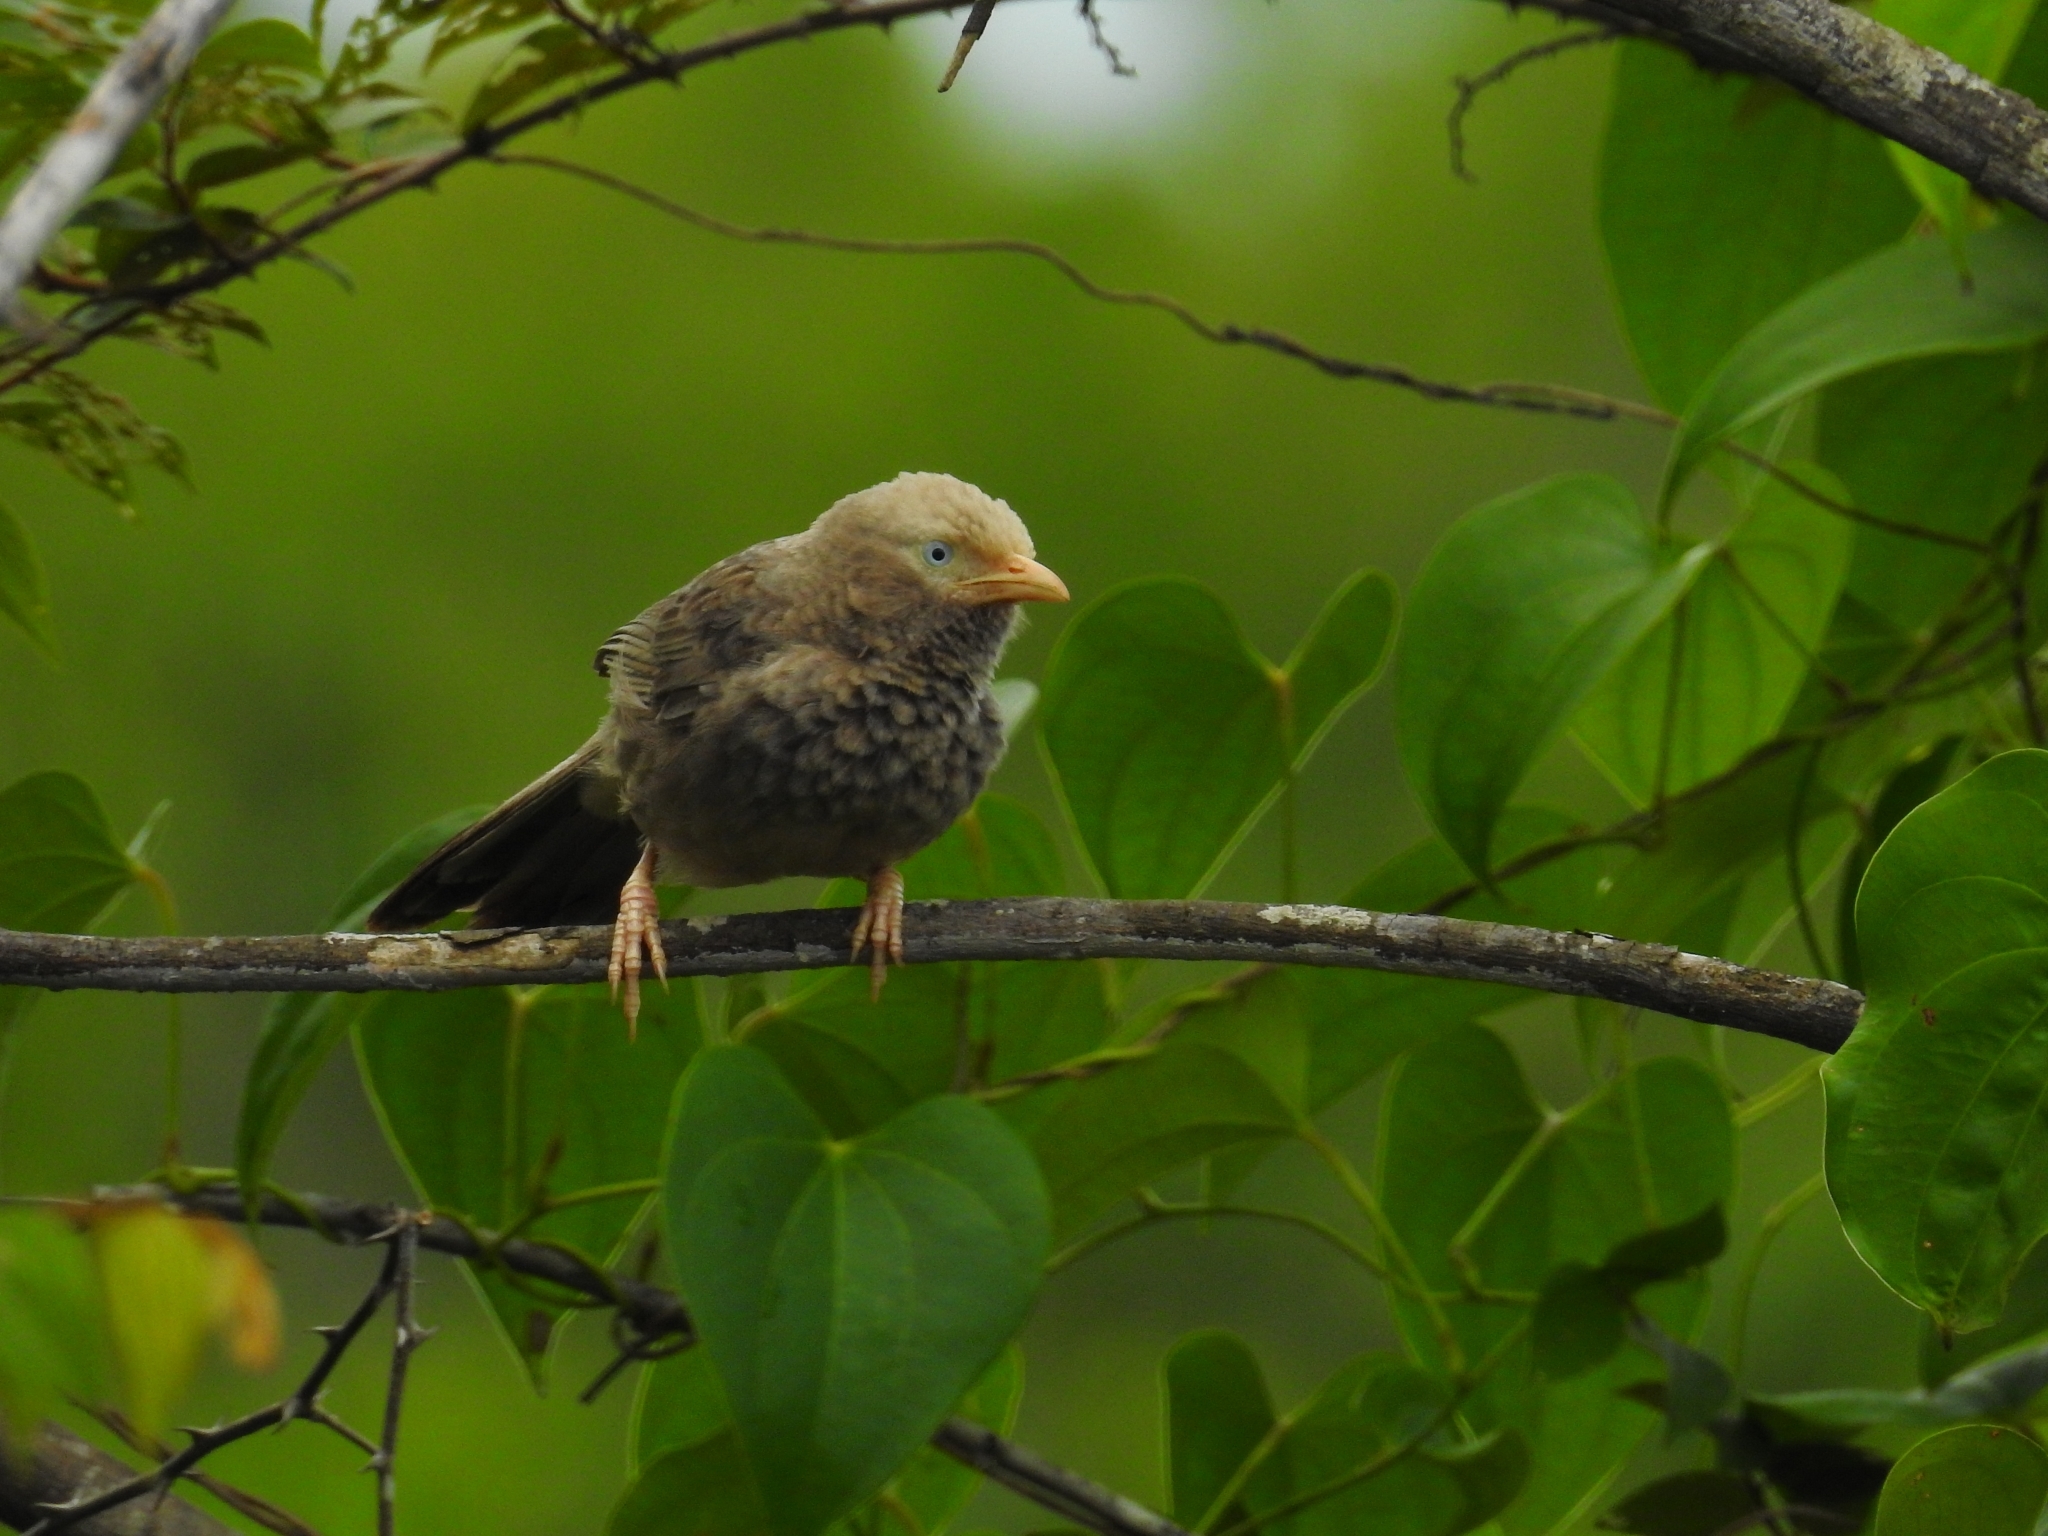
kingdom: Animalia
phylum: Chordata
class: Aves
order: Passeriformes
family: Leiothrichidae
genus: Turdoides
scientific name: Turdoides affinis
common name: Yellow-billed babbler
